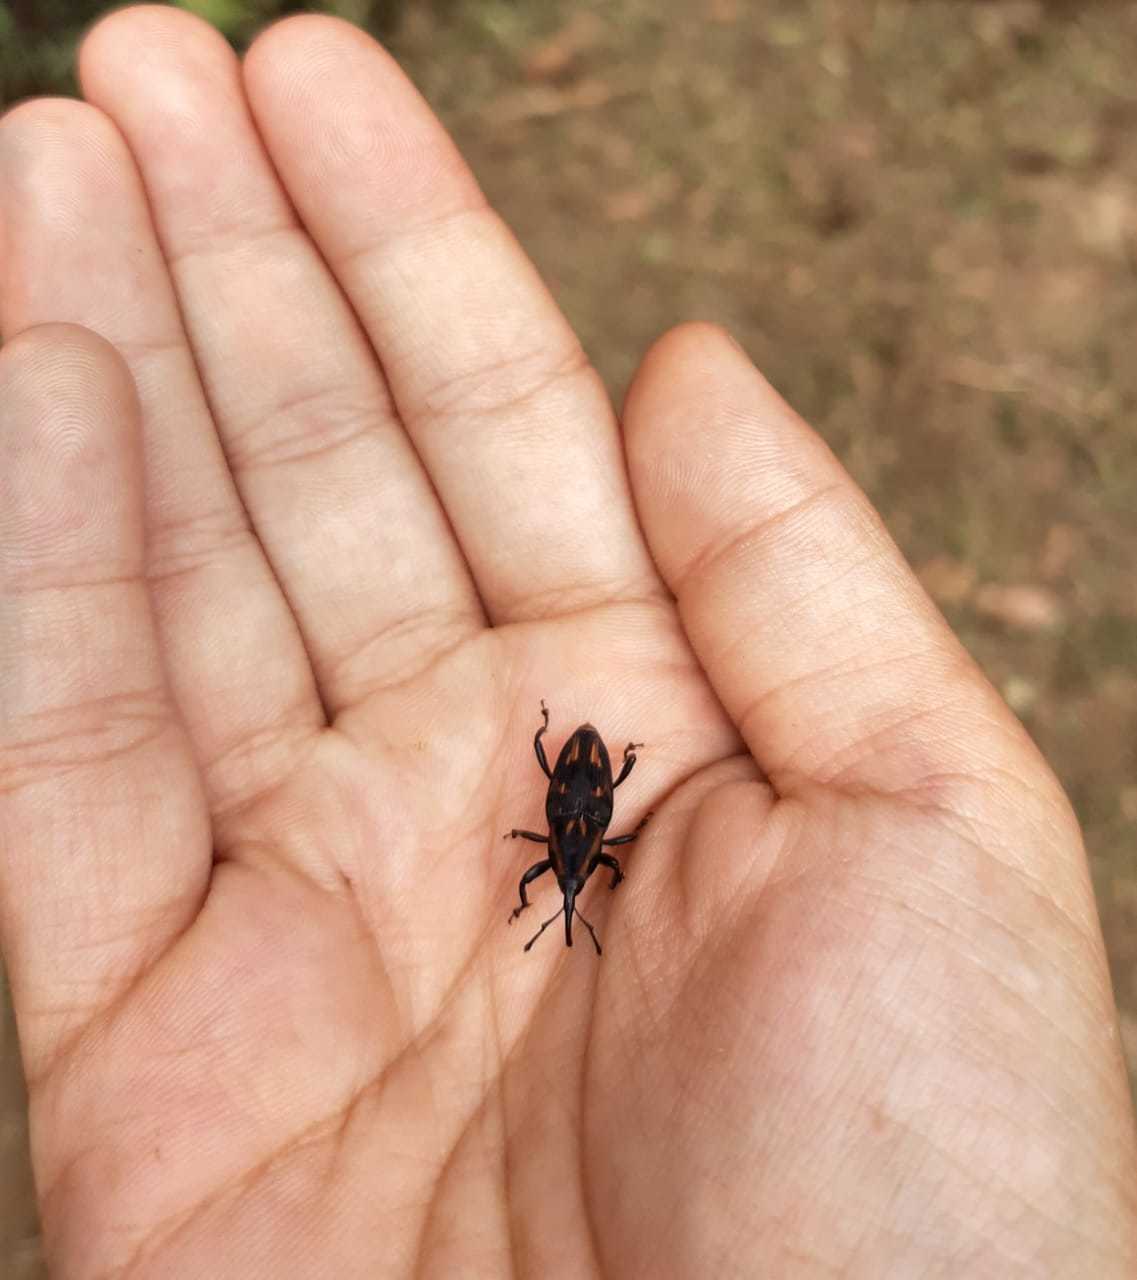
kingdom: Animalia
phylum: Arthropoda
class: Insecta
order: Coleoptera
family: Dryophthoridae
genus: Metamasius
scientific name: Metamasius ensirostris
